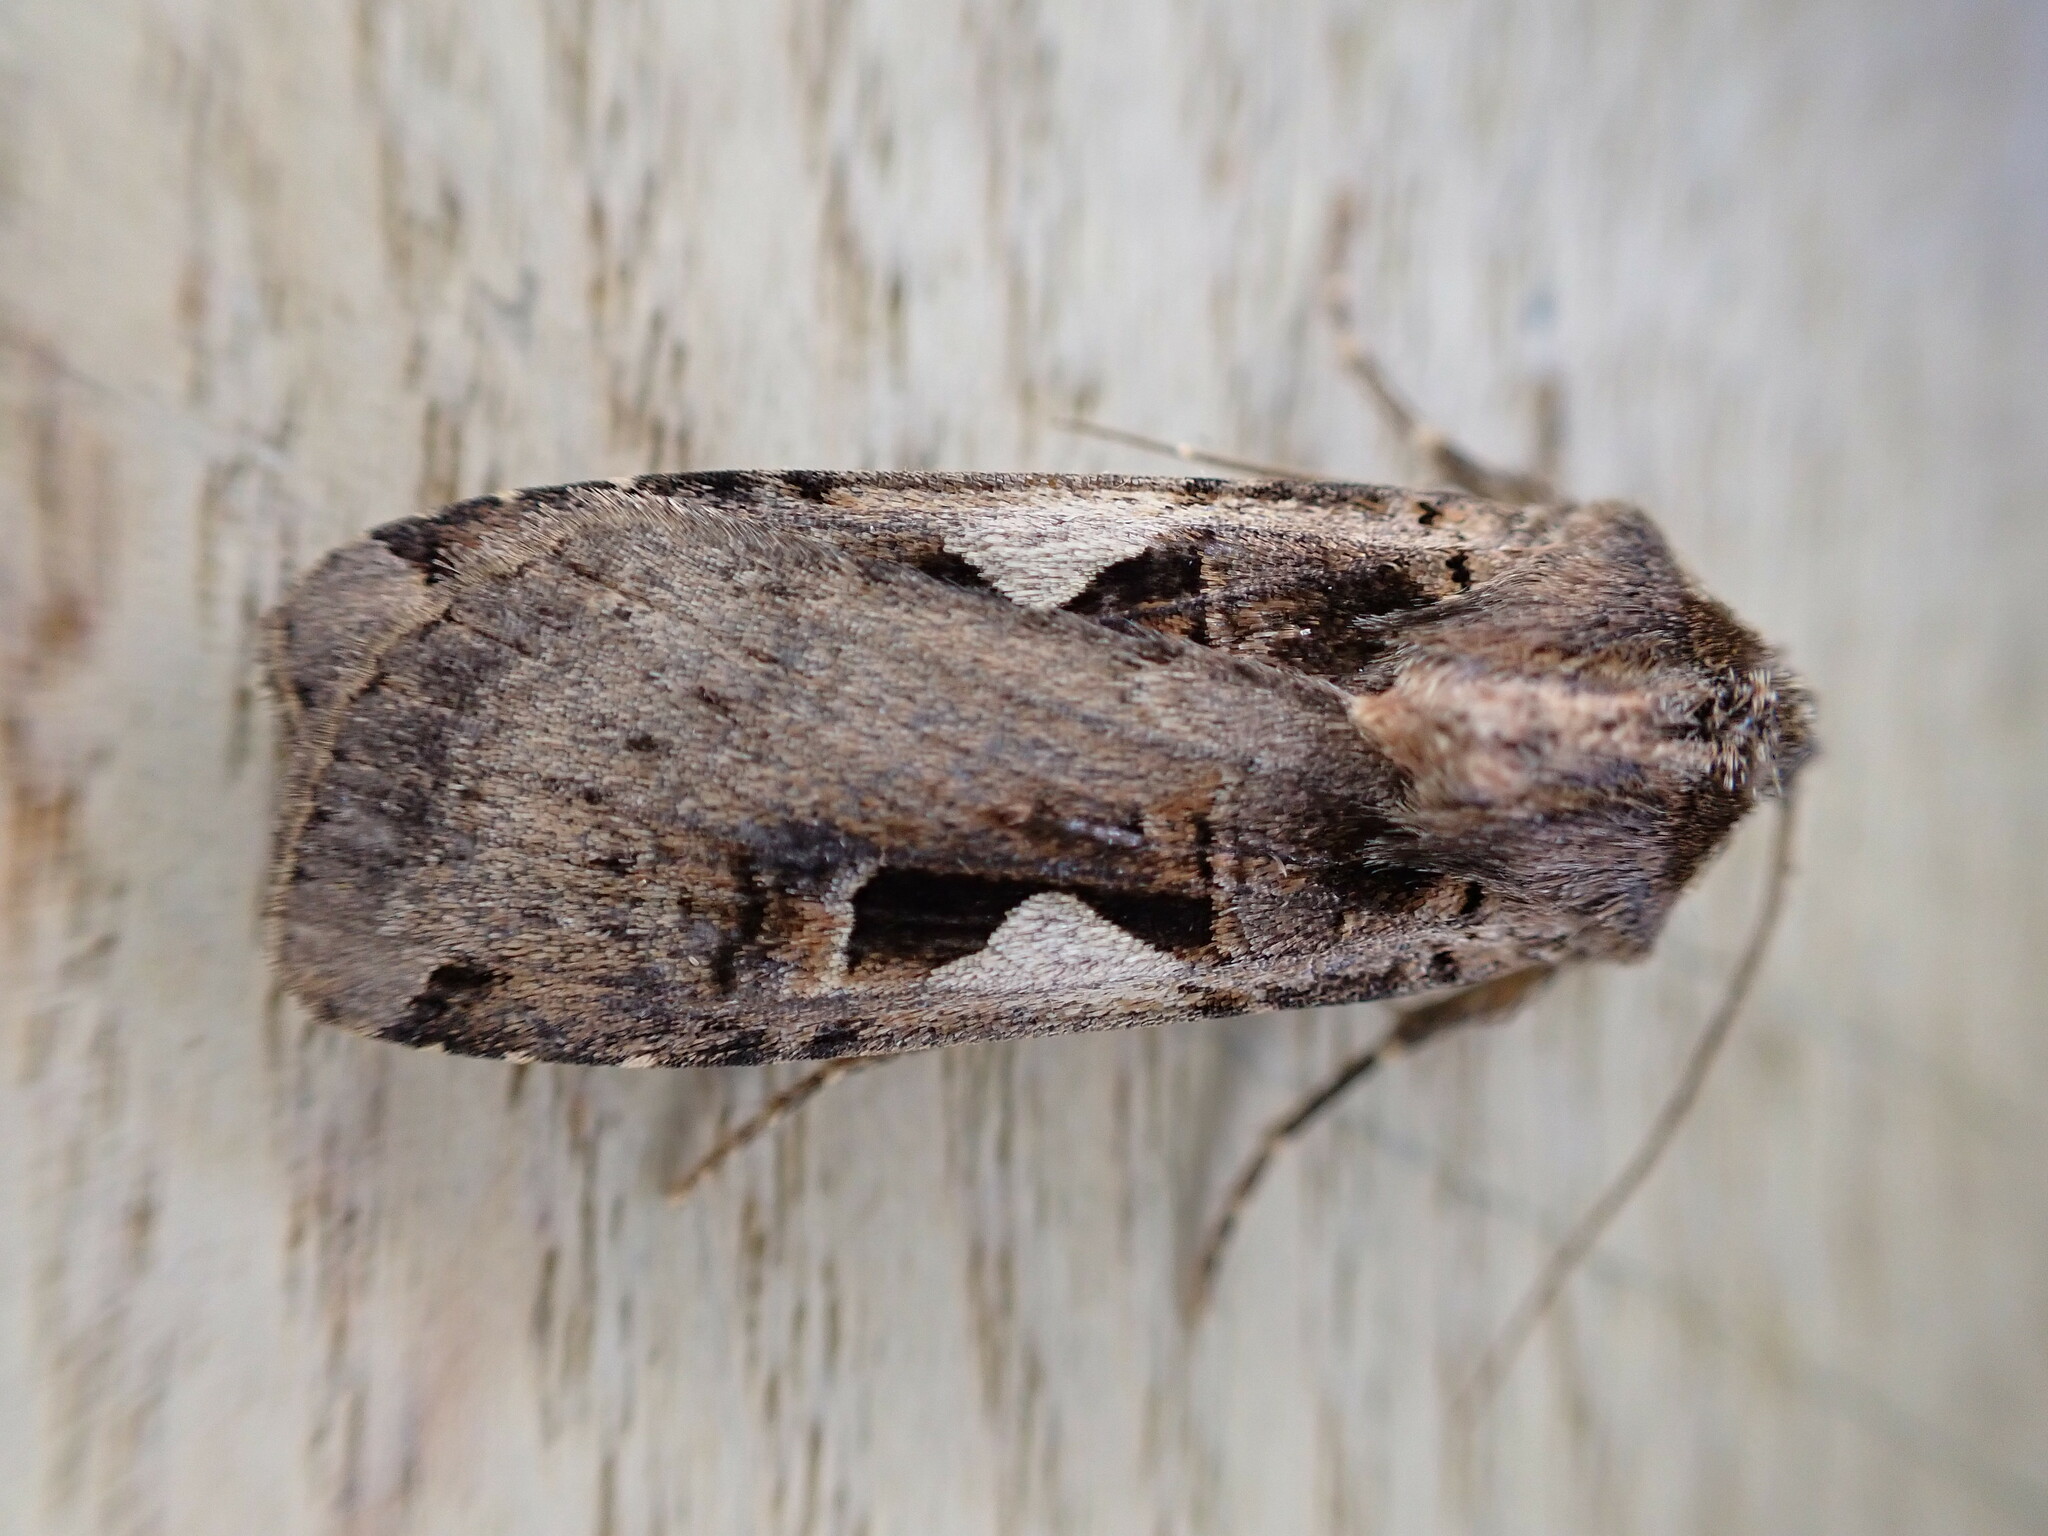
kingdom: Animalia
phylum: Arthropoda
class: Insecta
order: Lepidoptera
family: Noctuidae
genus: Xestia
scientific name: Xestia c-nigrum
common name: Setaceous hebrew character
